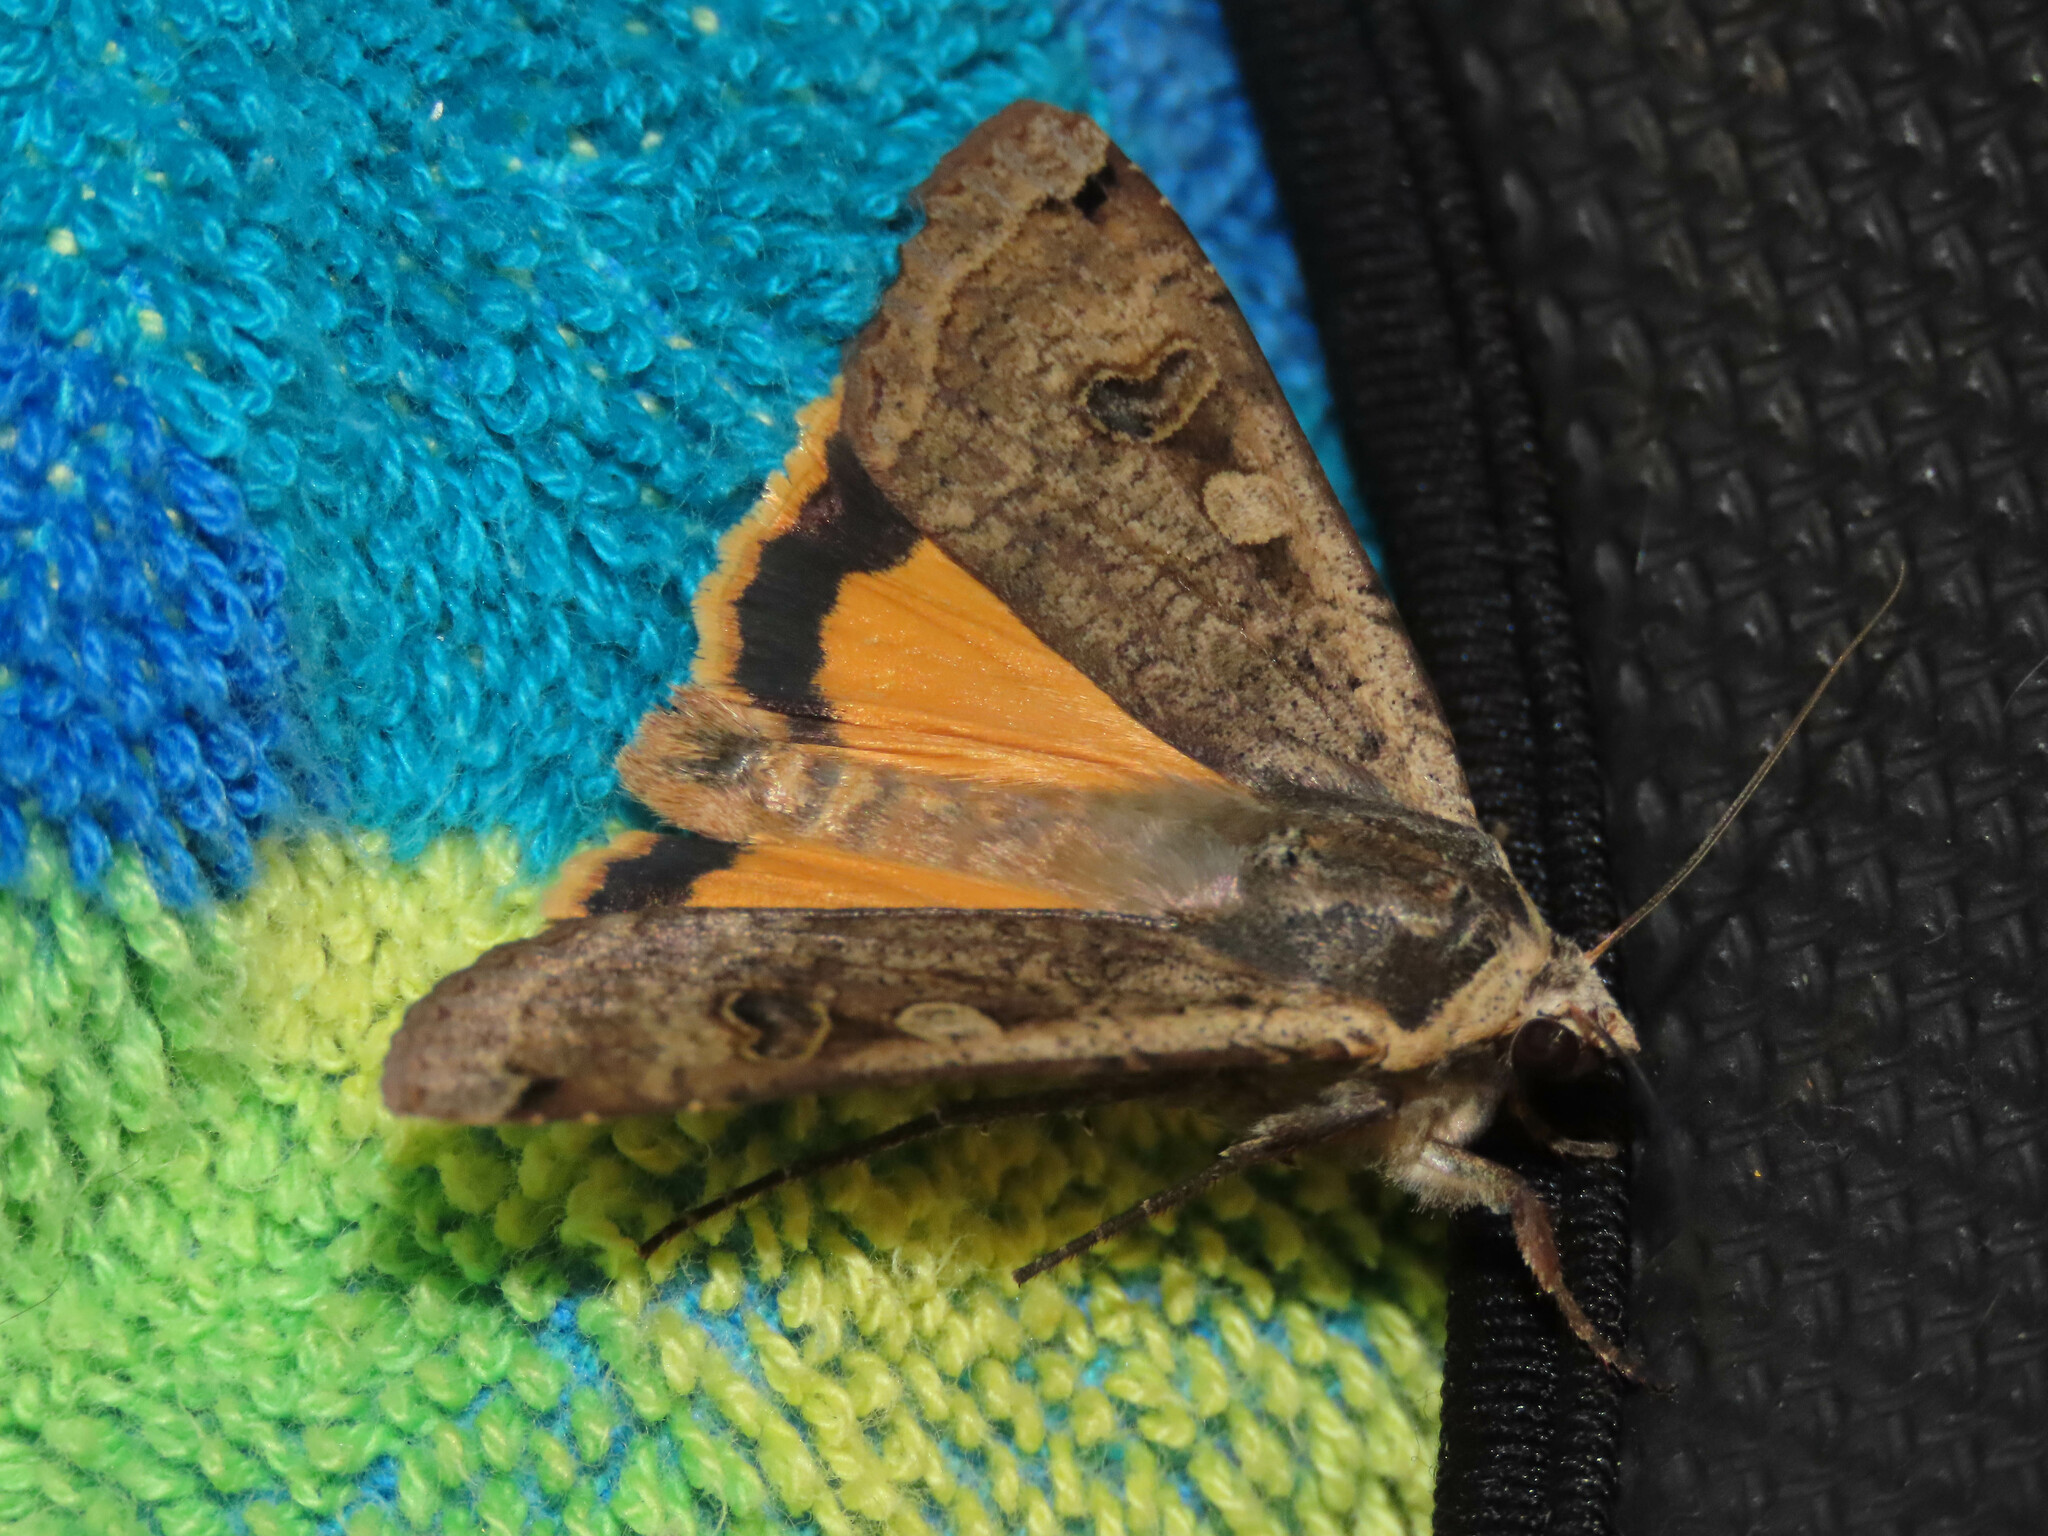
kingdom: Animalia
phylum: Arthropoda
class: Insecta
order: Lepidoptera
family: Noctuidae
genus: Noctua
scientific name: Noctua pronuba
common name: Large yellow underwing
